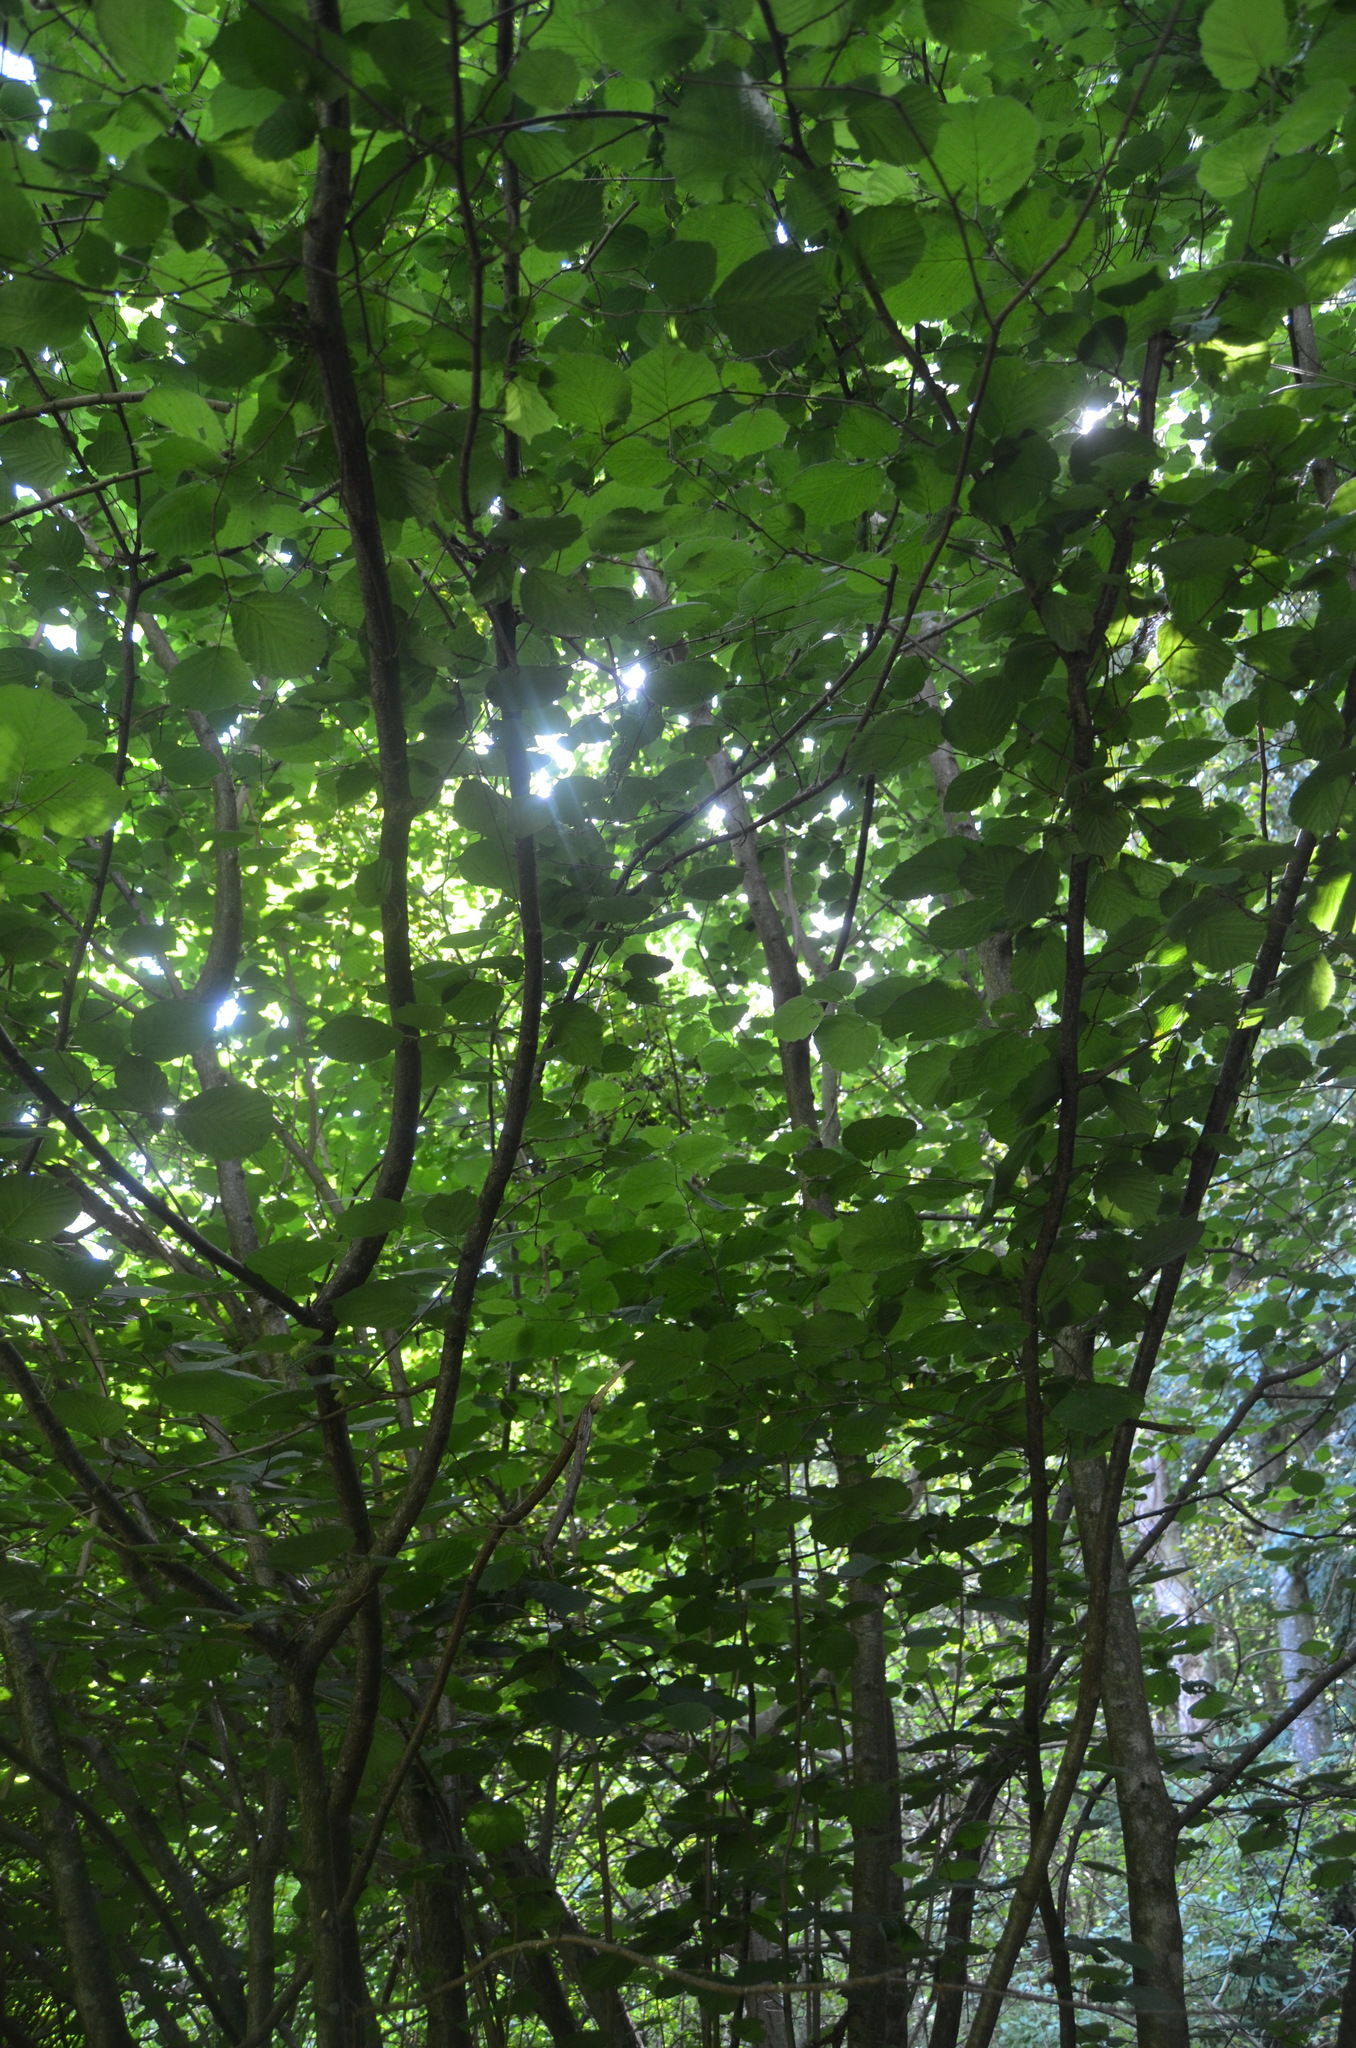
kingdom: Plantae
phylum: Tracheophyta
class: Magnoliopsida
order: Fagales
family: Betulaceae
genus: Corylus
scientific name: Corylus avellana
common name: European hazel
